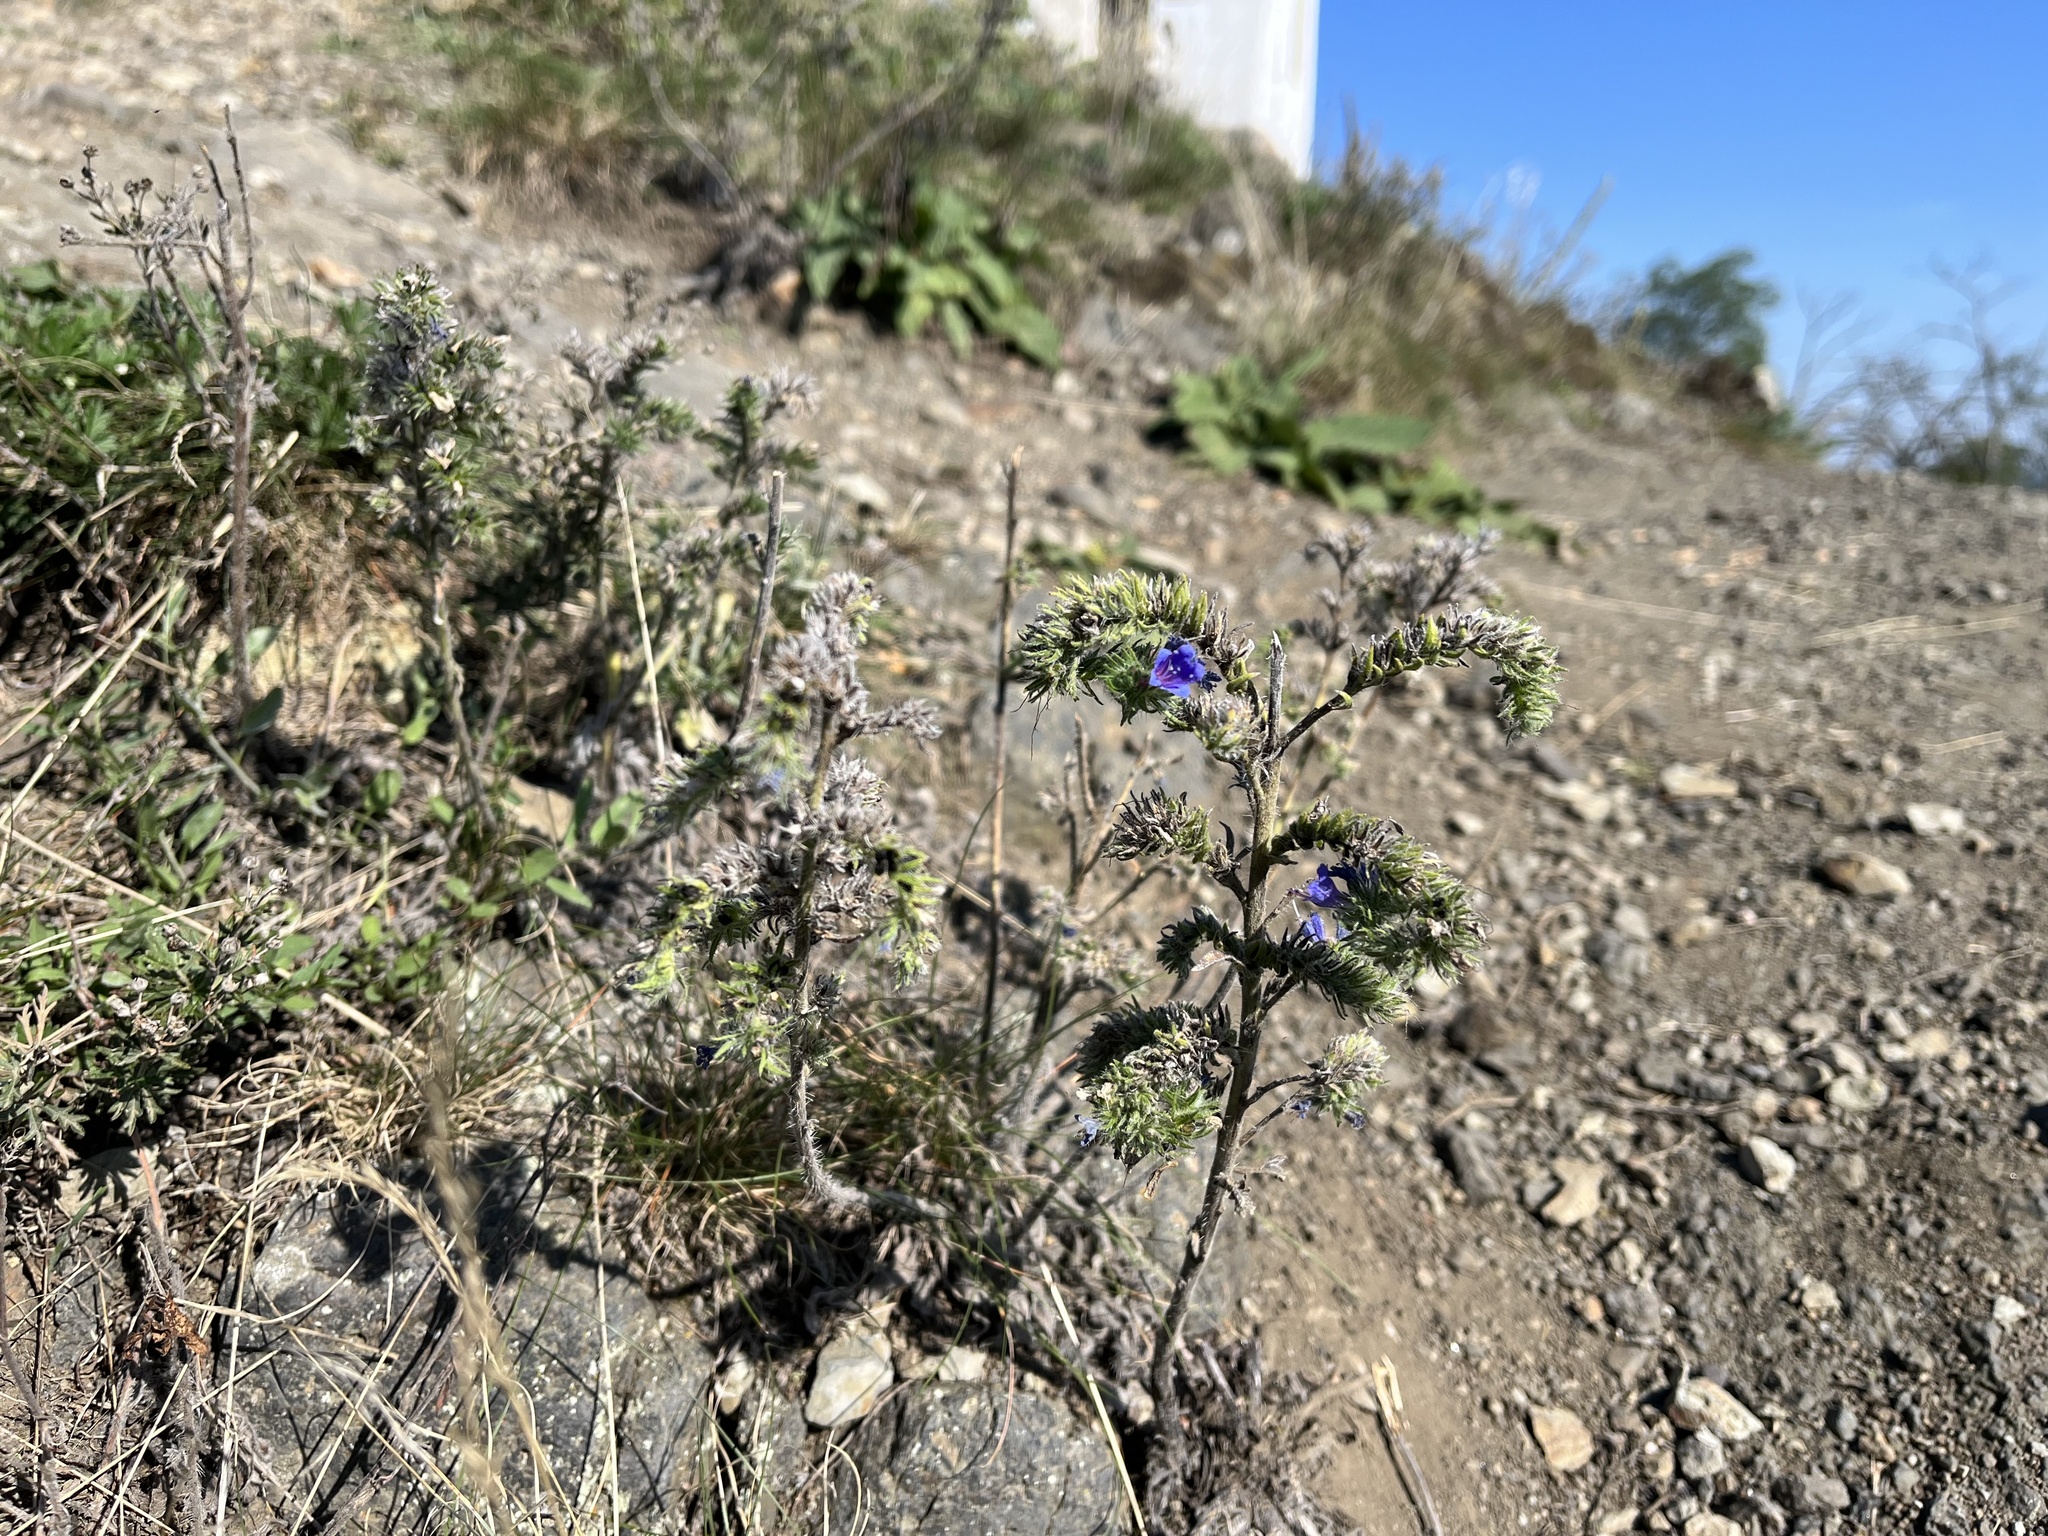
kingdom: Plantae
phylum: Tracheophyta
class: Magnoliopsida
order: Boraginales
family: Boraginaceae
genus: Echium
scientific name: Echium vulgare
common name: Common viper's bugloss
